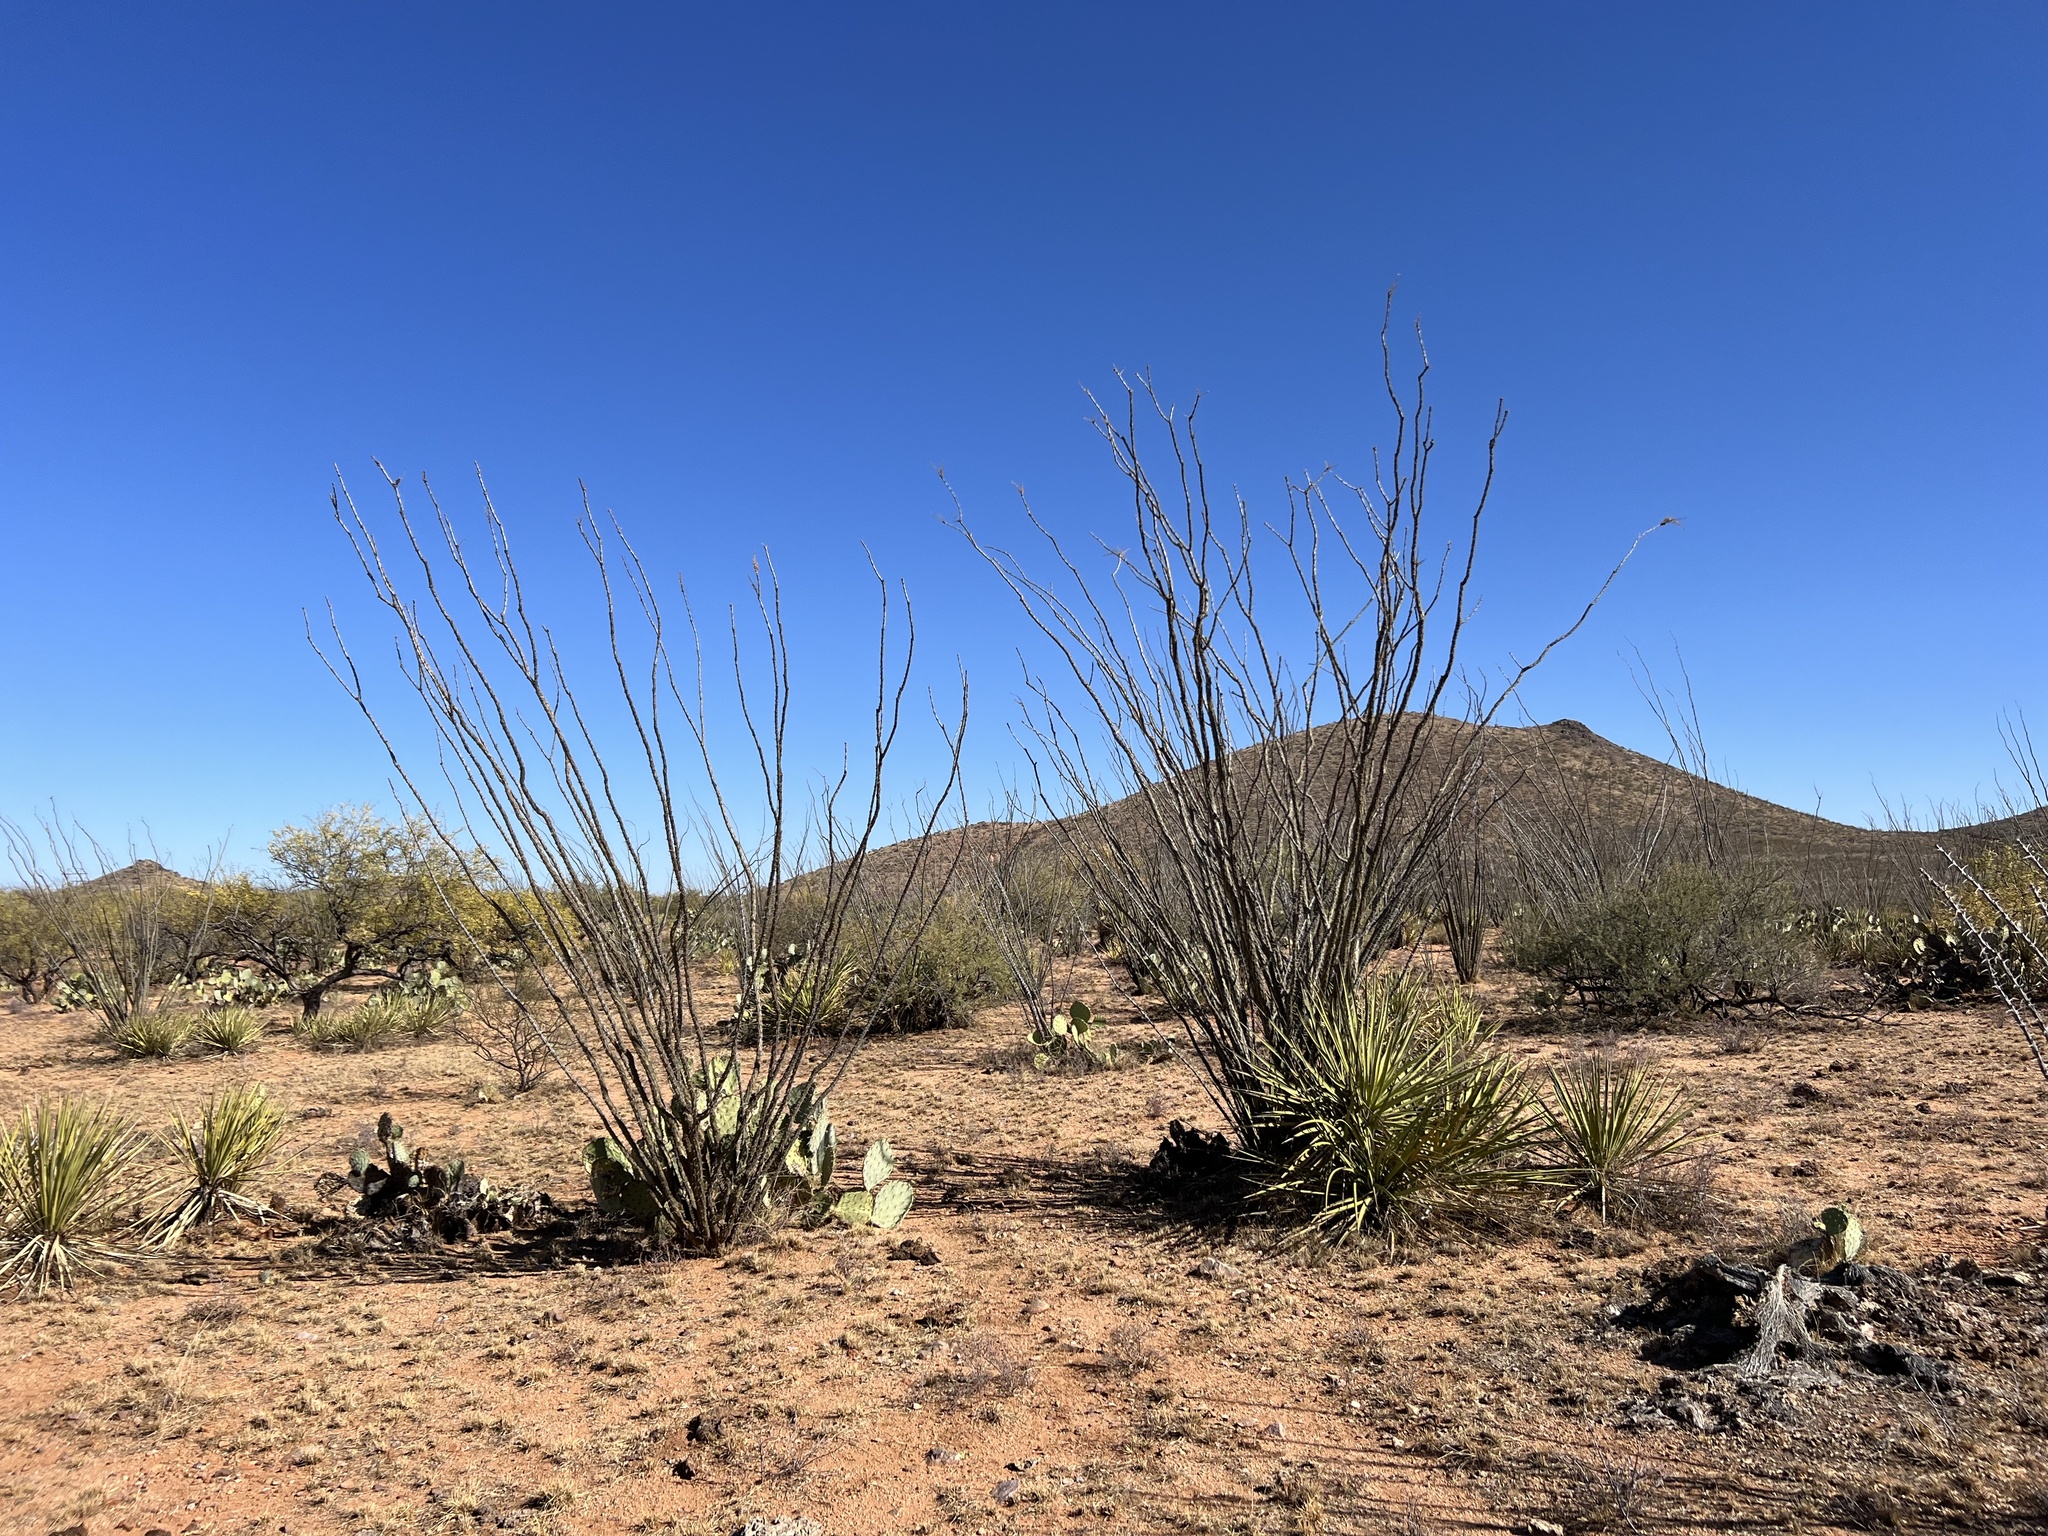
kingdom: Plantae
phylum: Tracheophyta
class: Magnoliopsida
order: Ericales
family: Fouquieriaceae
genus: Fouquieria
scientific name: Fouquieria splendens
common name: Vine-cactus
